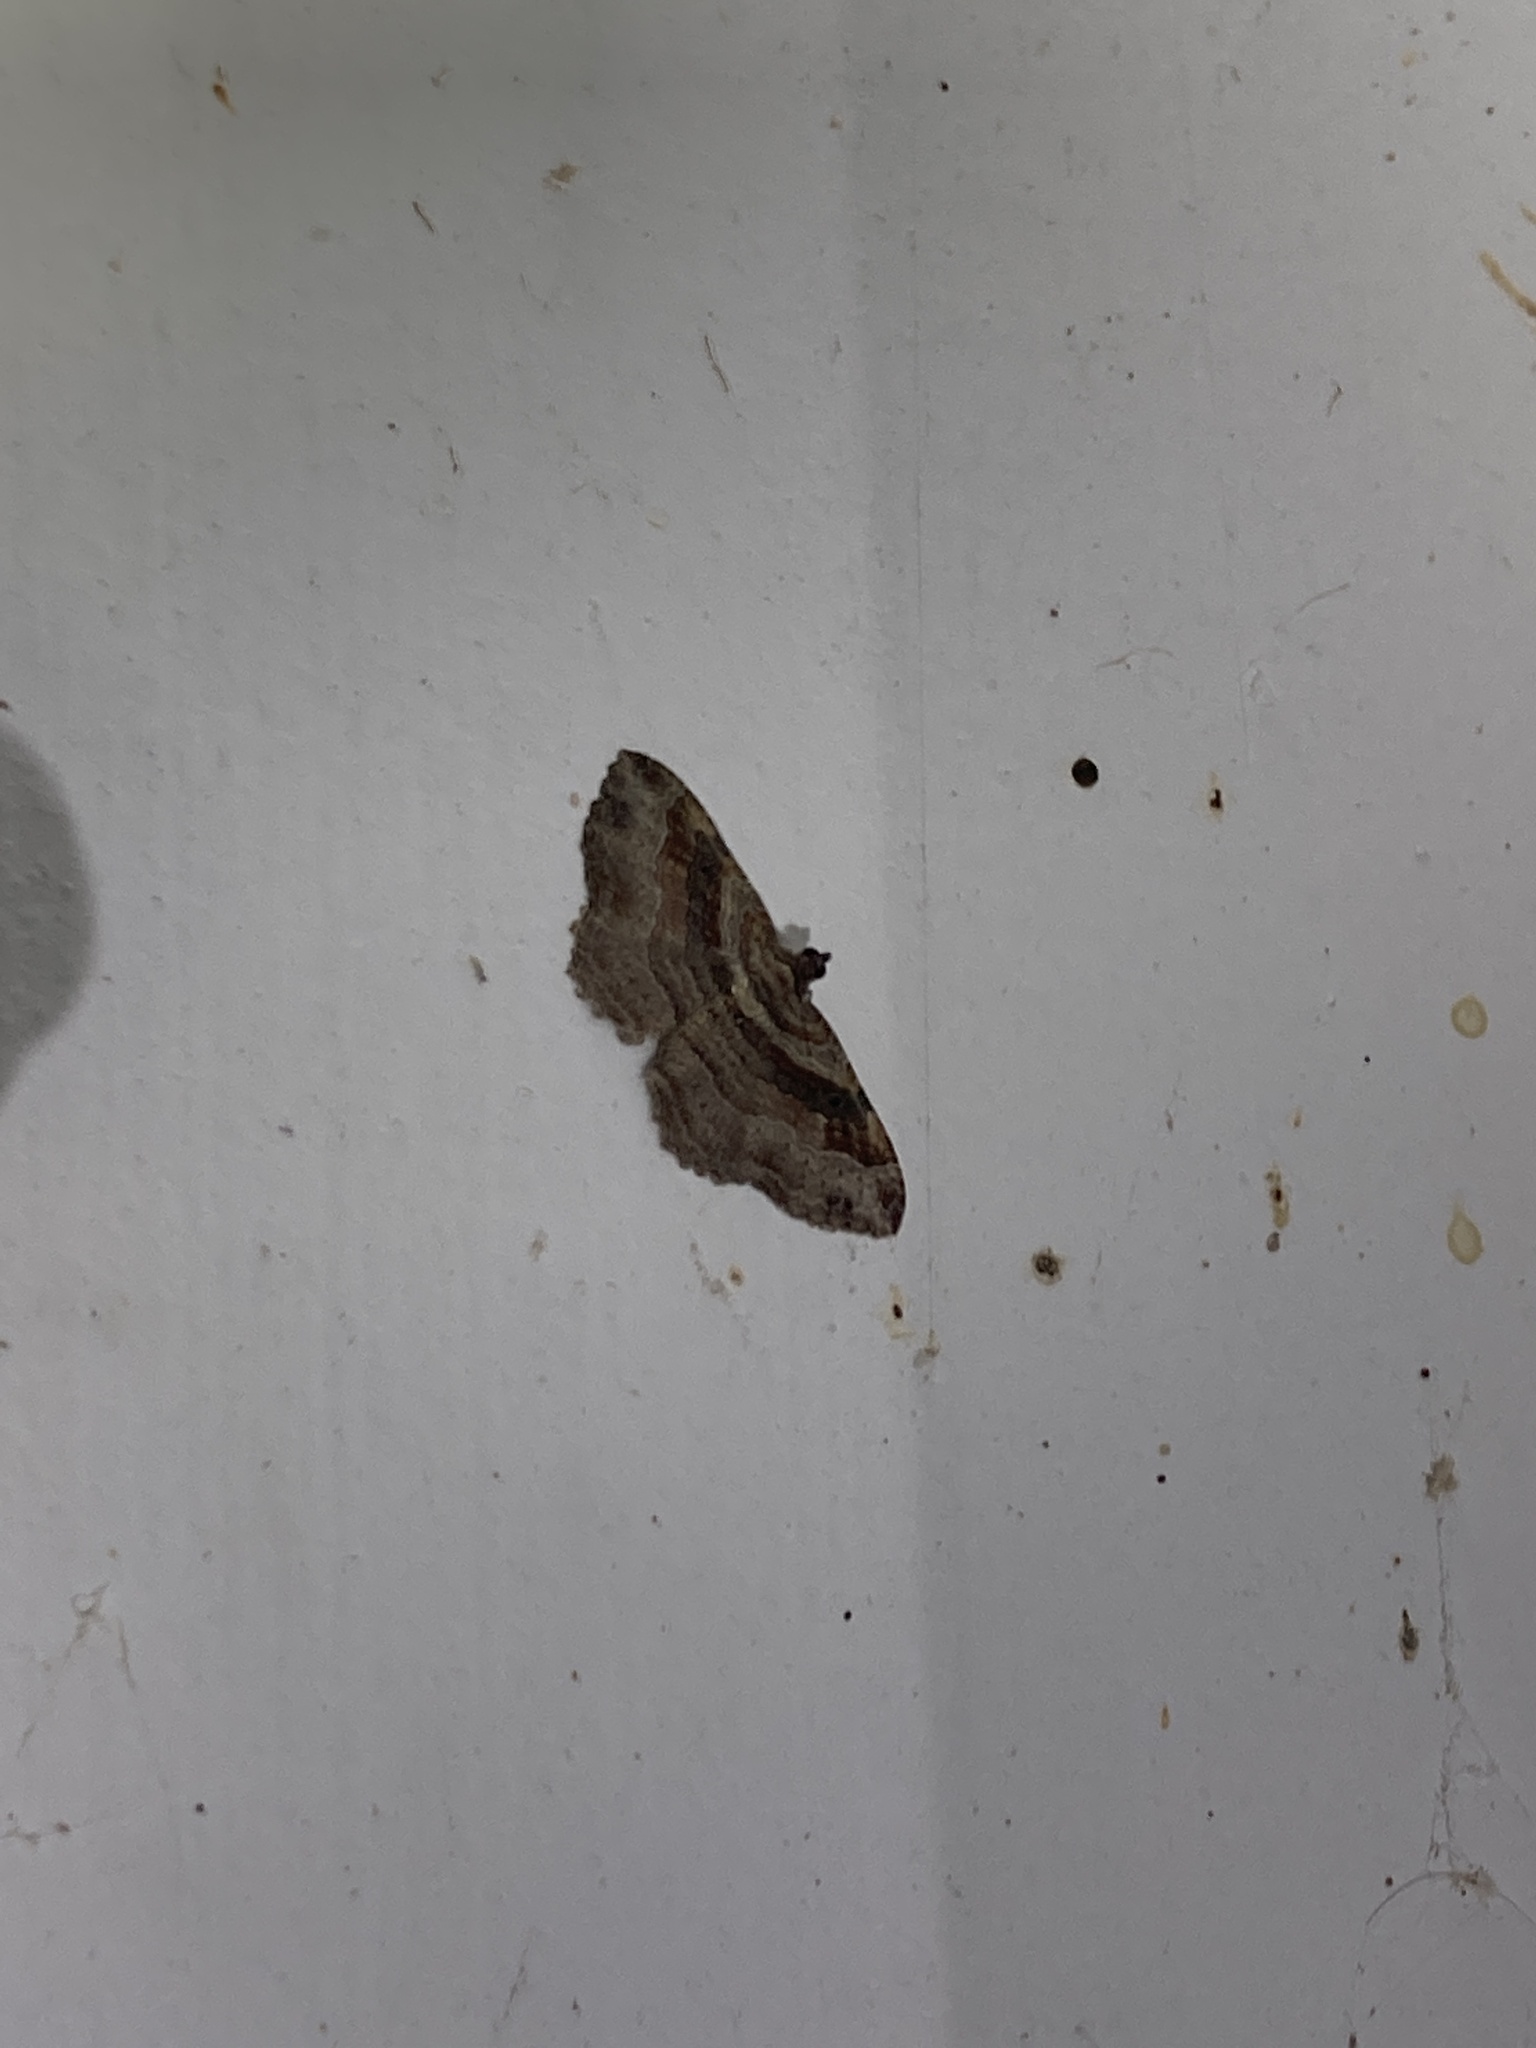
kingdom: Animalia
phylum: Arthropoda
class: Insecta
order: Lepidoptera
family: Geometridae
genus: Costaconvexa
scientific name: Costaconvexa centrostrigaria
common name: Bent-line carpet
